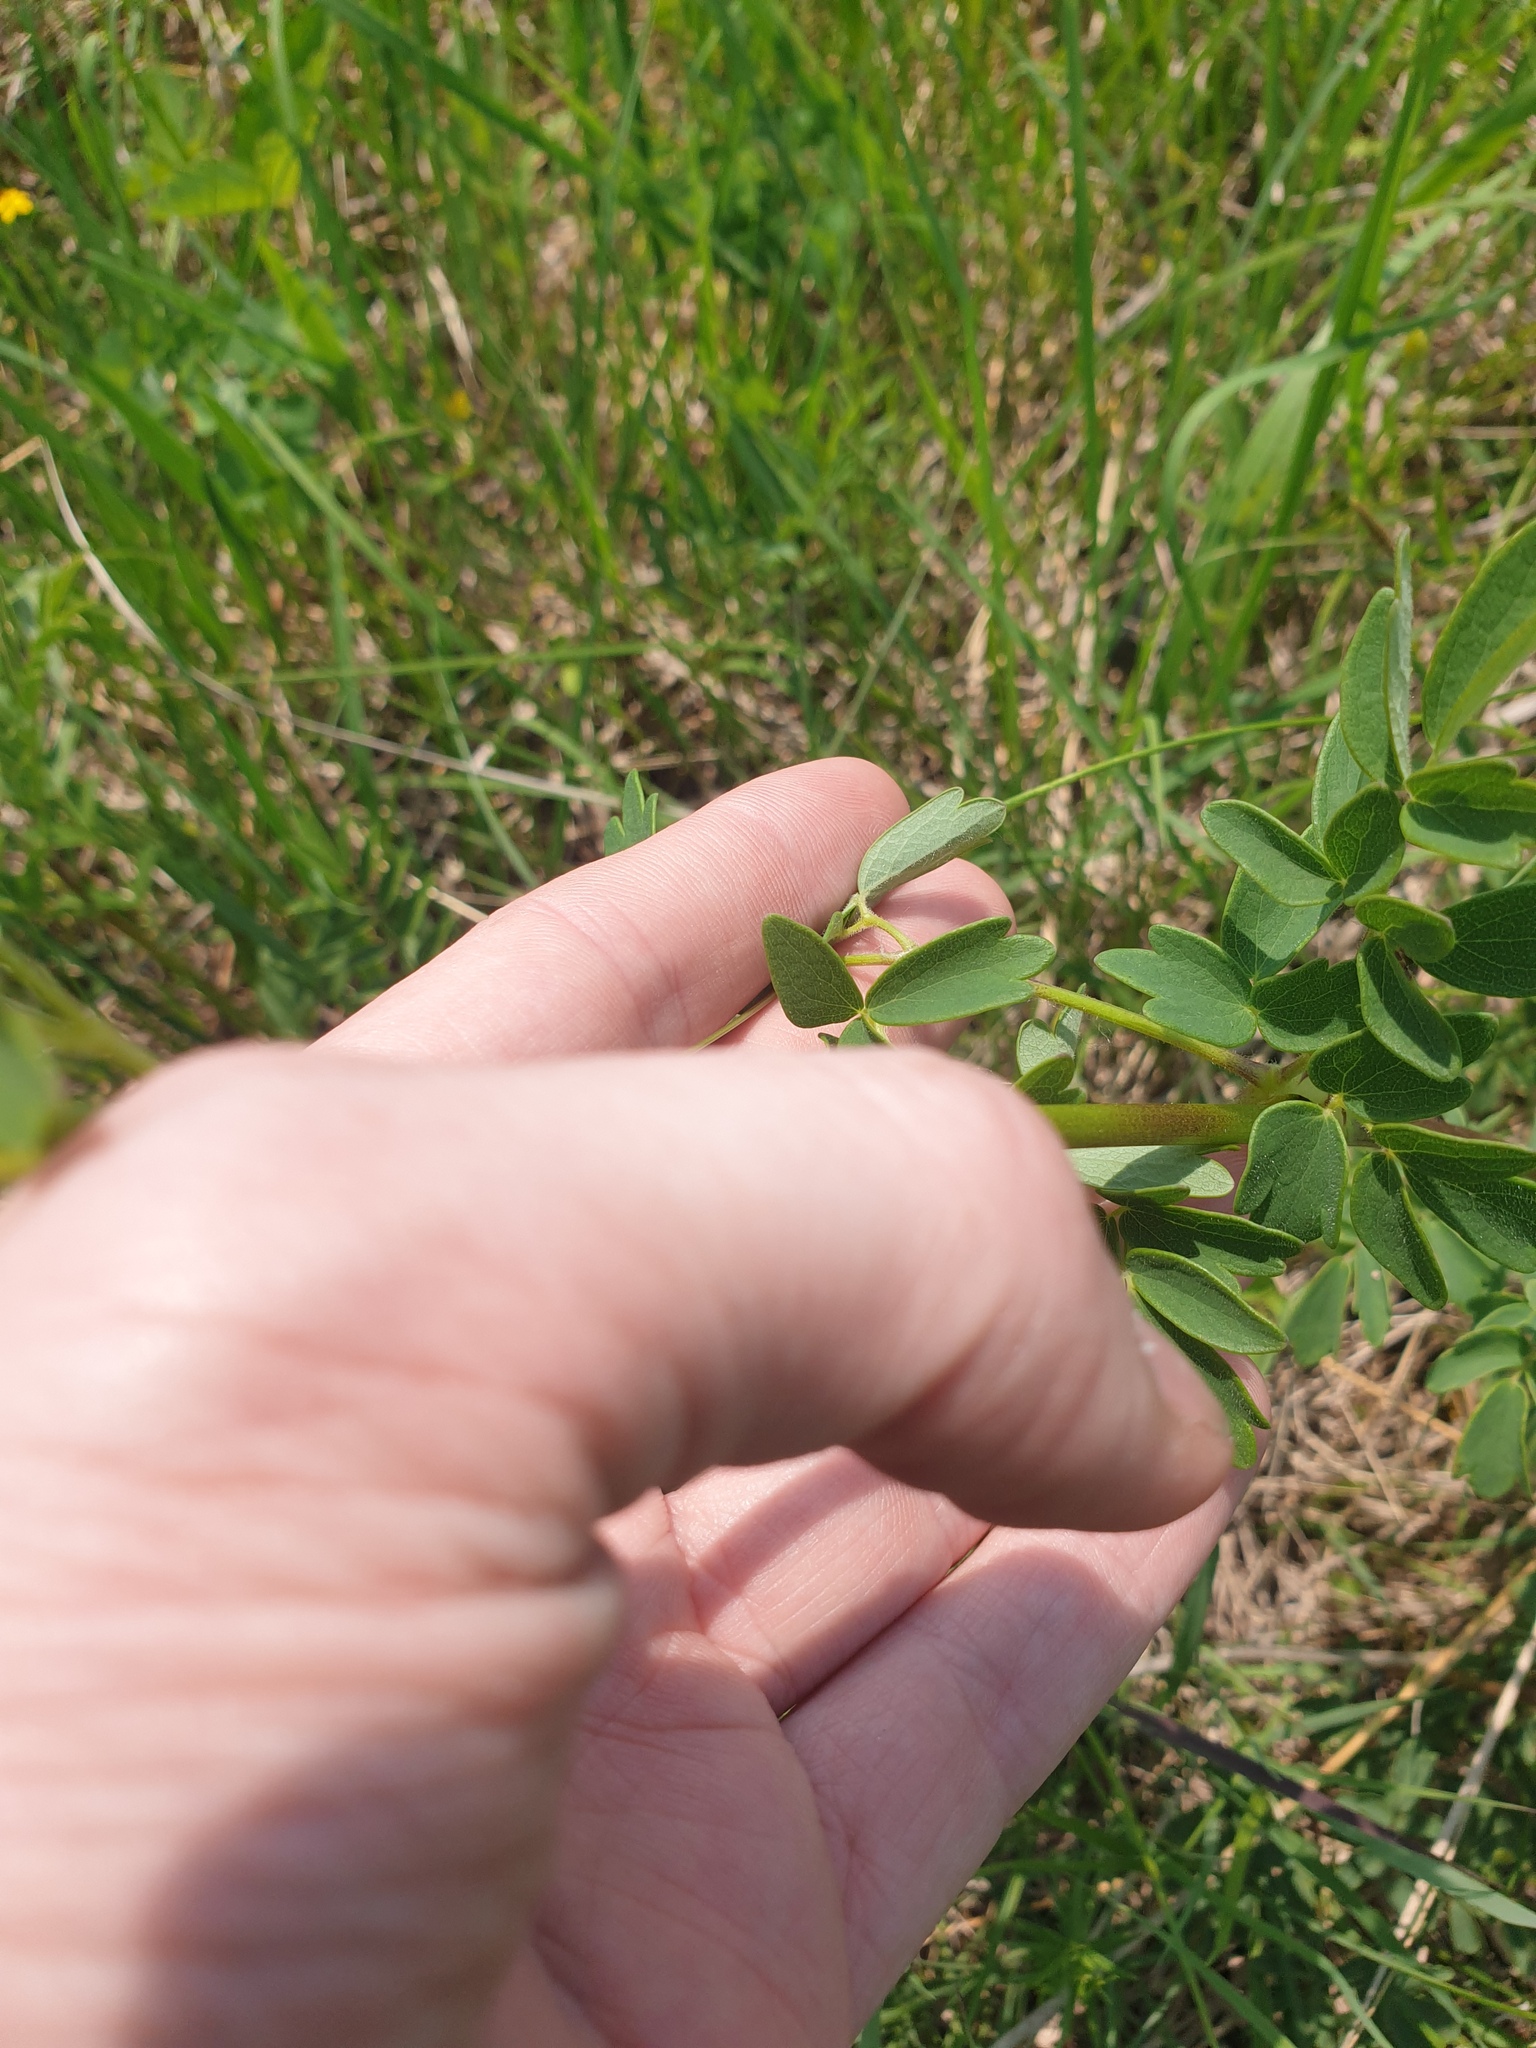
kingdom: Plantae
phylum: Tracheophyta
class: Magnoliopsida
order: Ranunculales
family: Ranunculaceae
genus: Thalictrum
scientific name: Thalictrum dasycarpum
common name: Purple meadow-rue
